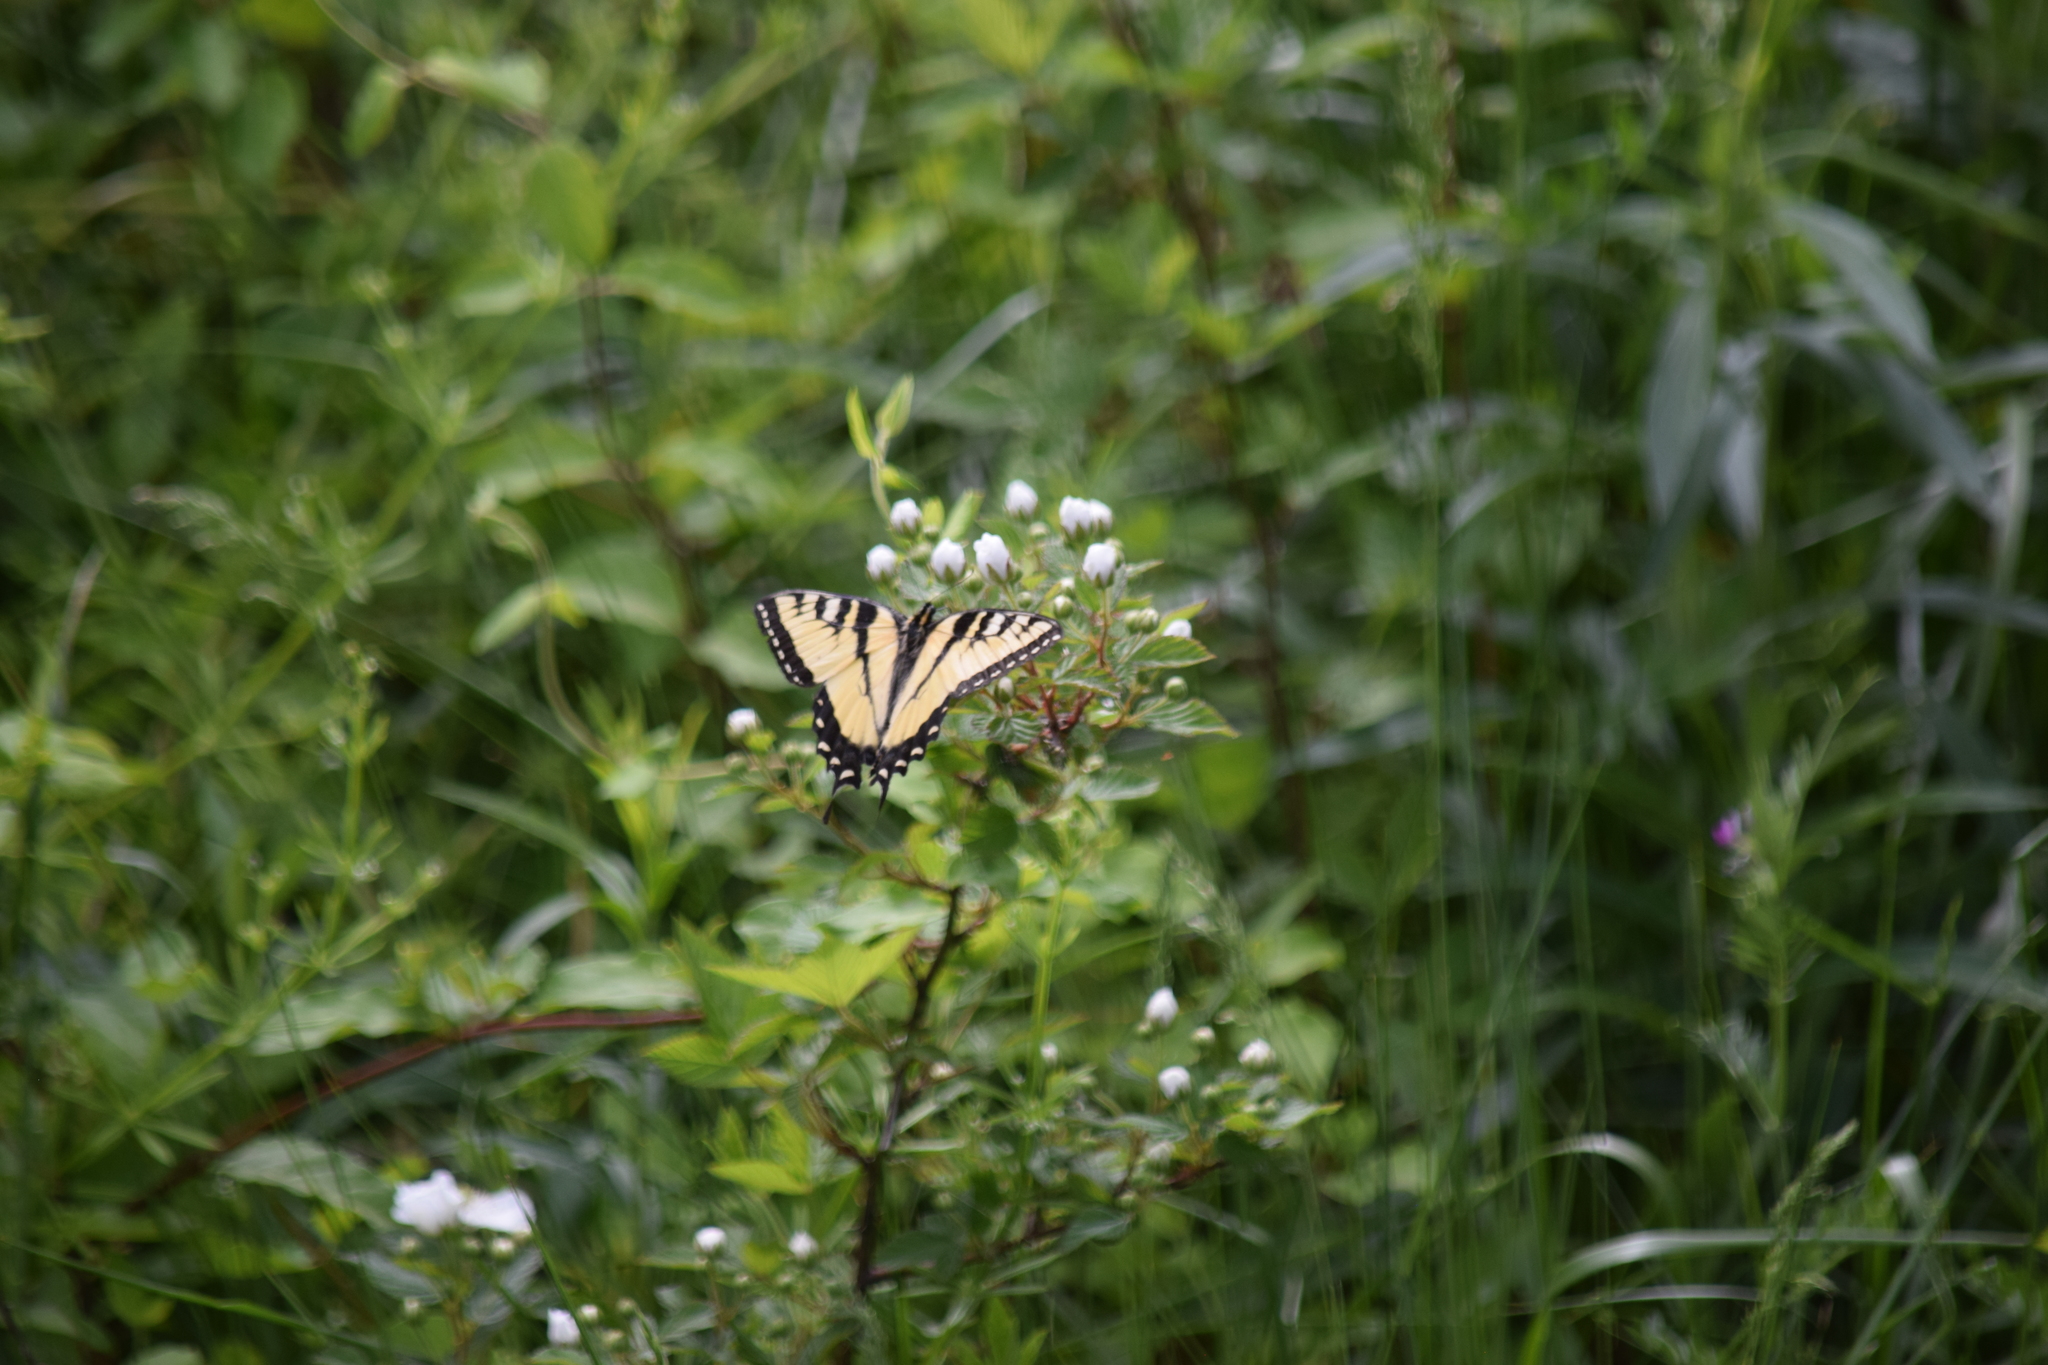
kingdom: Animalia
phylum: Arthropoda
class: Insecta
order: Lepidoptera
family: Papilionidae
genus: Papilio
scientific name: Papilio glaucus
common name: Tiger swallowtail
